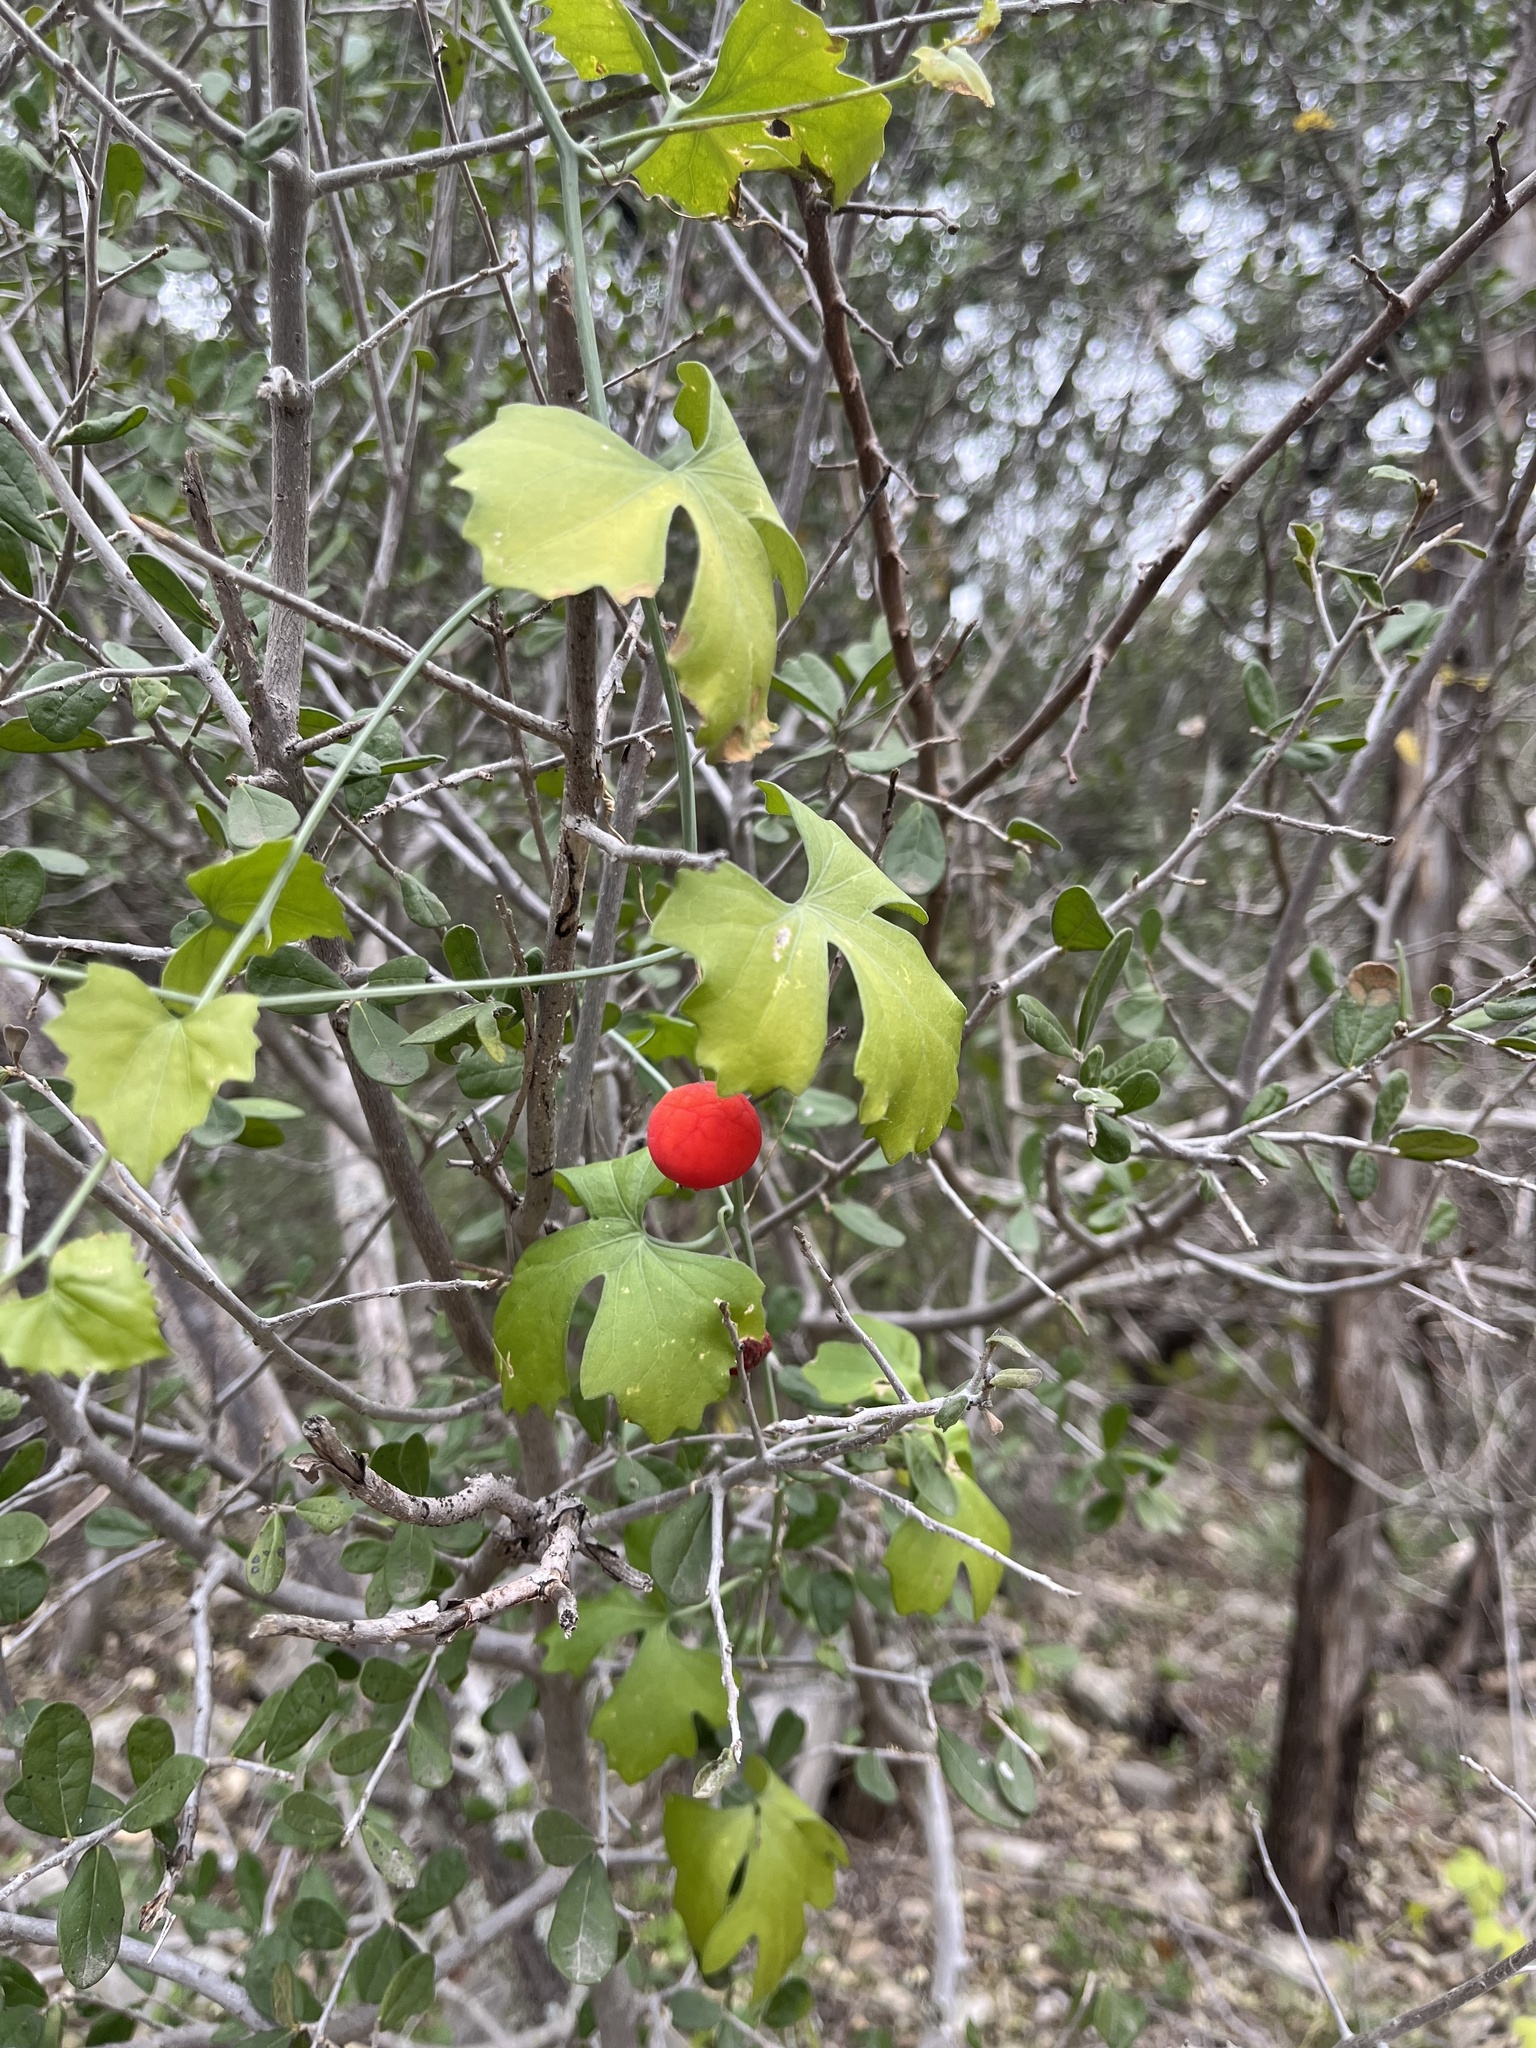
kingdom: Plantae
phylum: Tracheophyta
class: Magnoliopsida
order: Cucurbitales
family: Cucurbitaceae
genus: Ibervillea
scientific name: Ibervillea lindheimeri
